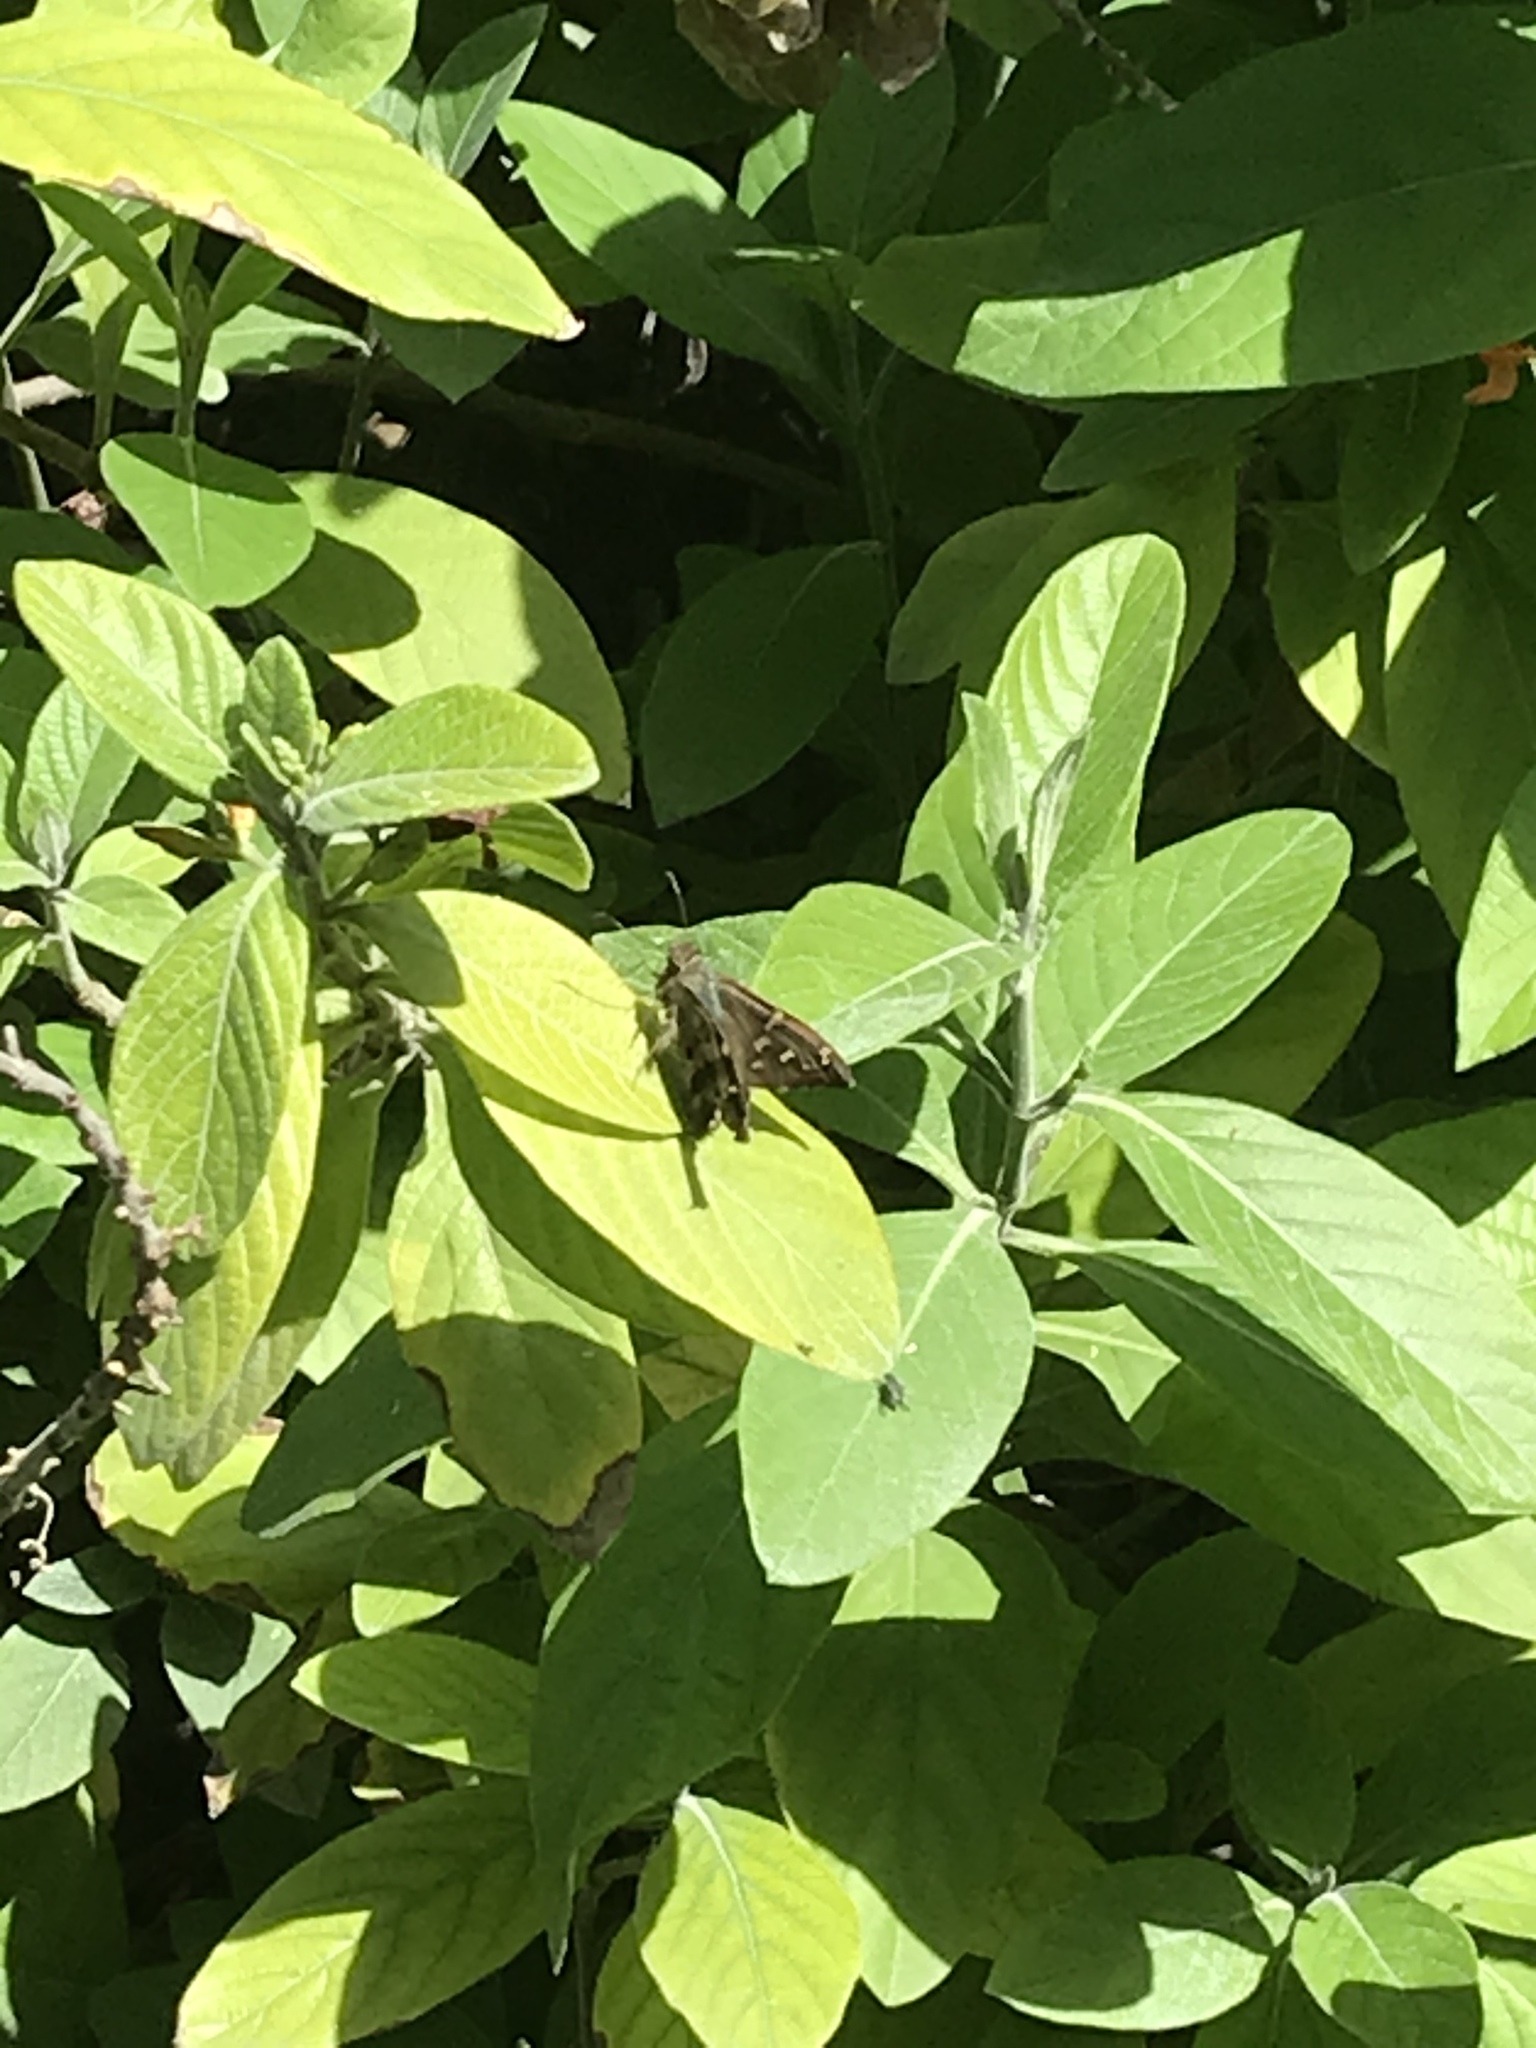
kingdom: Animalia
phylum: Arthropoda
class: Insecta
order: Lepidoptera
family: Hesperiidae
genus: Urbanus
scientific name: Urbanus proteus
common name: Long-tailed skipper
